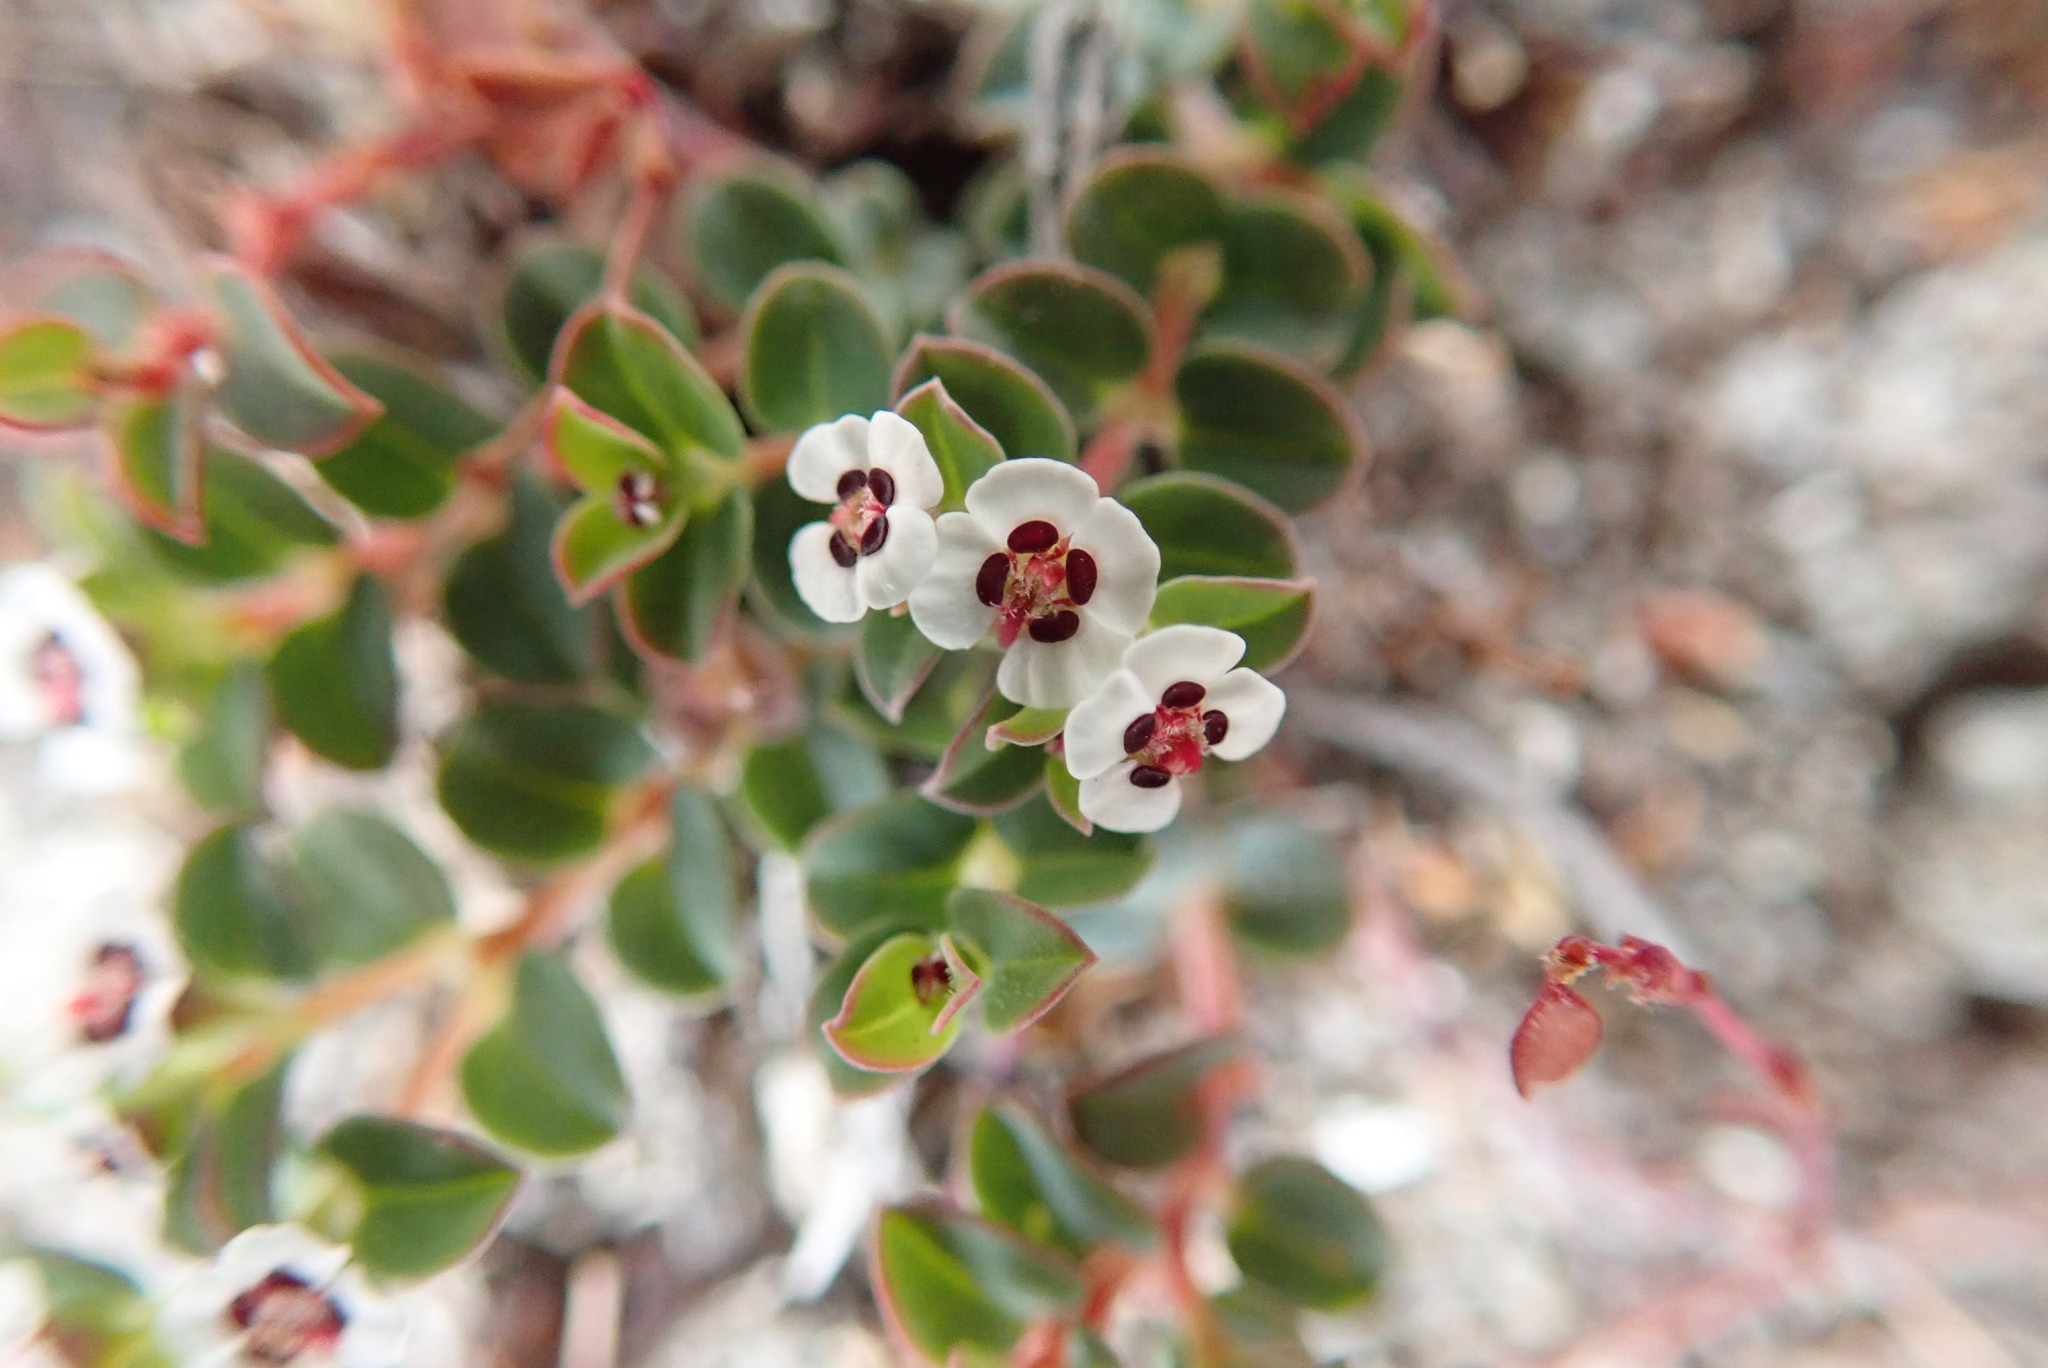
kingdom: Plantae
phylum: Tracheophyta
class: Magnoliopsida
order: Malpighiales
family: Euphorbiaceae
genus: Euphorbia
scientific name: Euphorbia polycarpa
